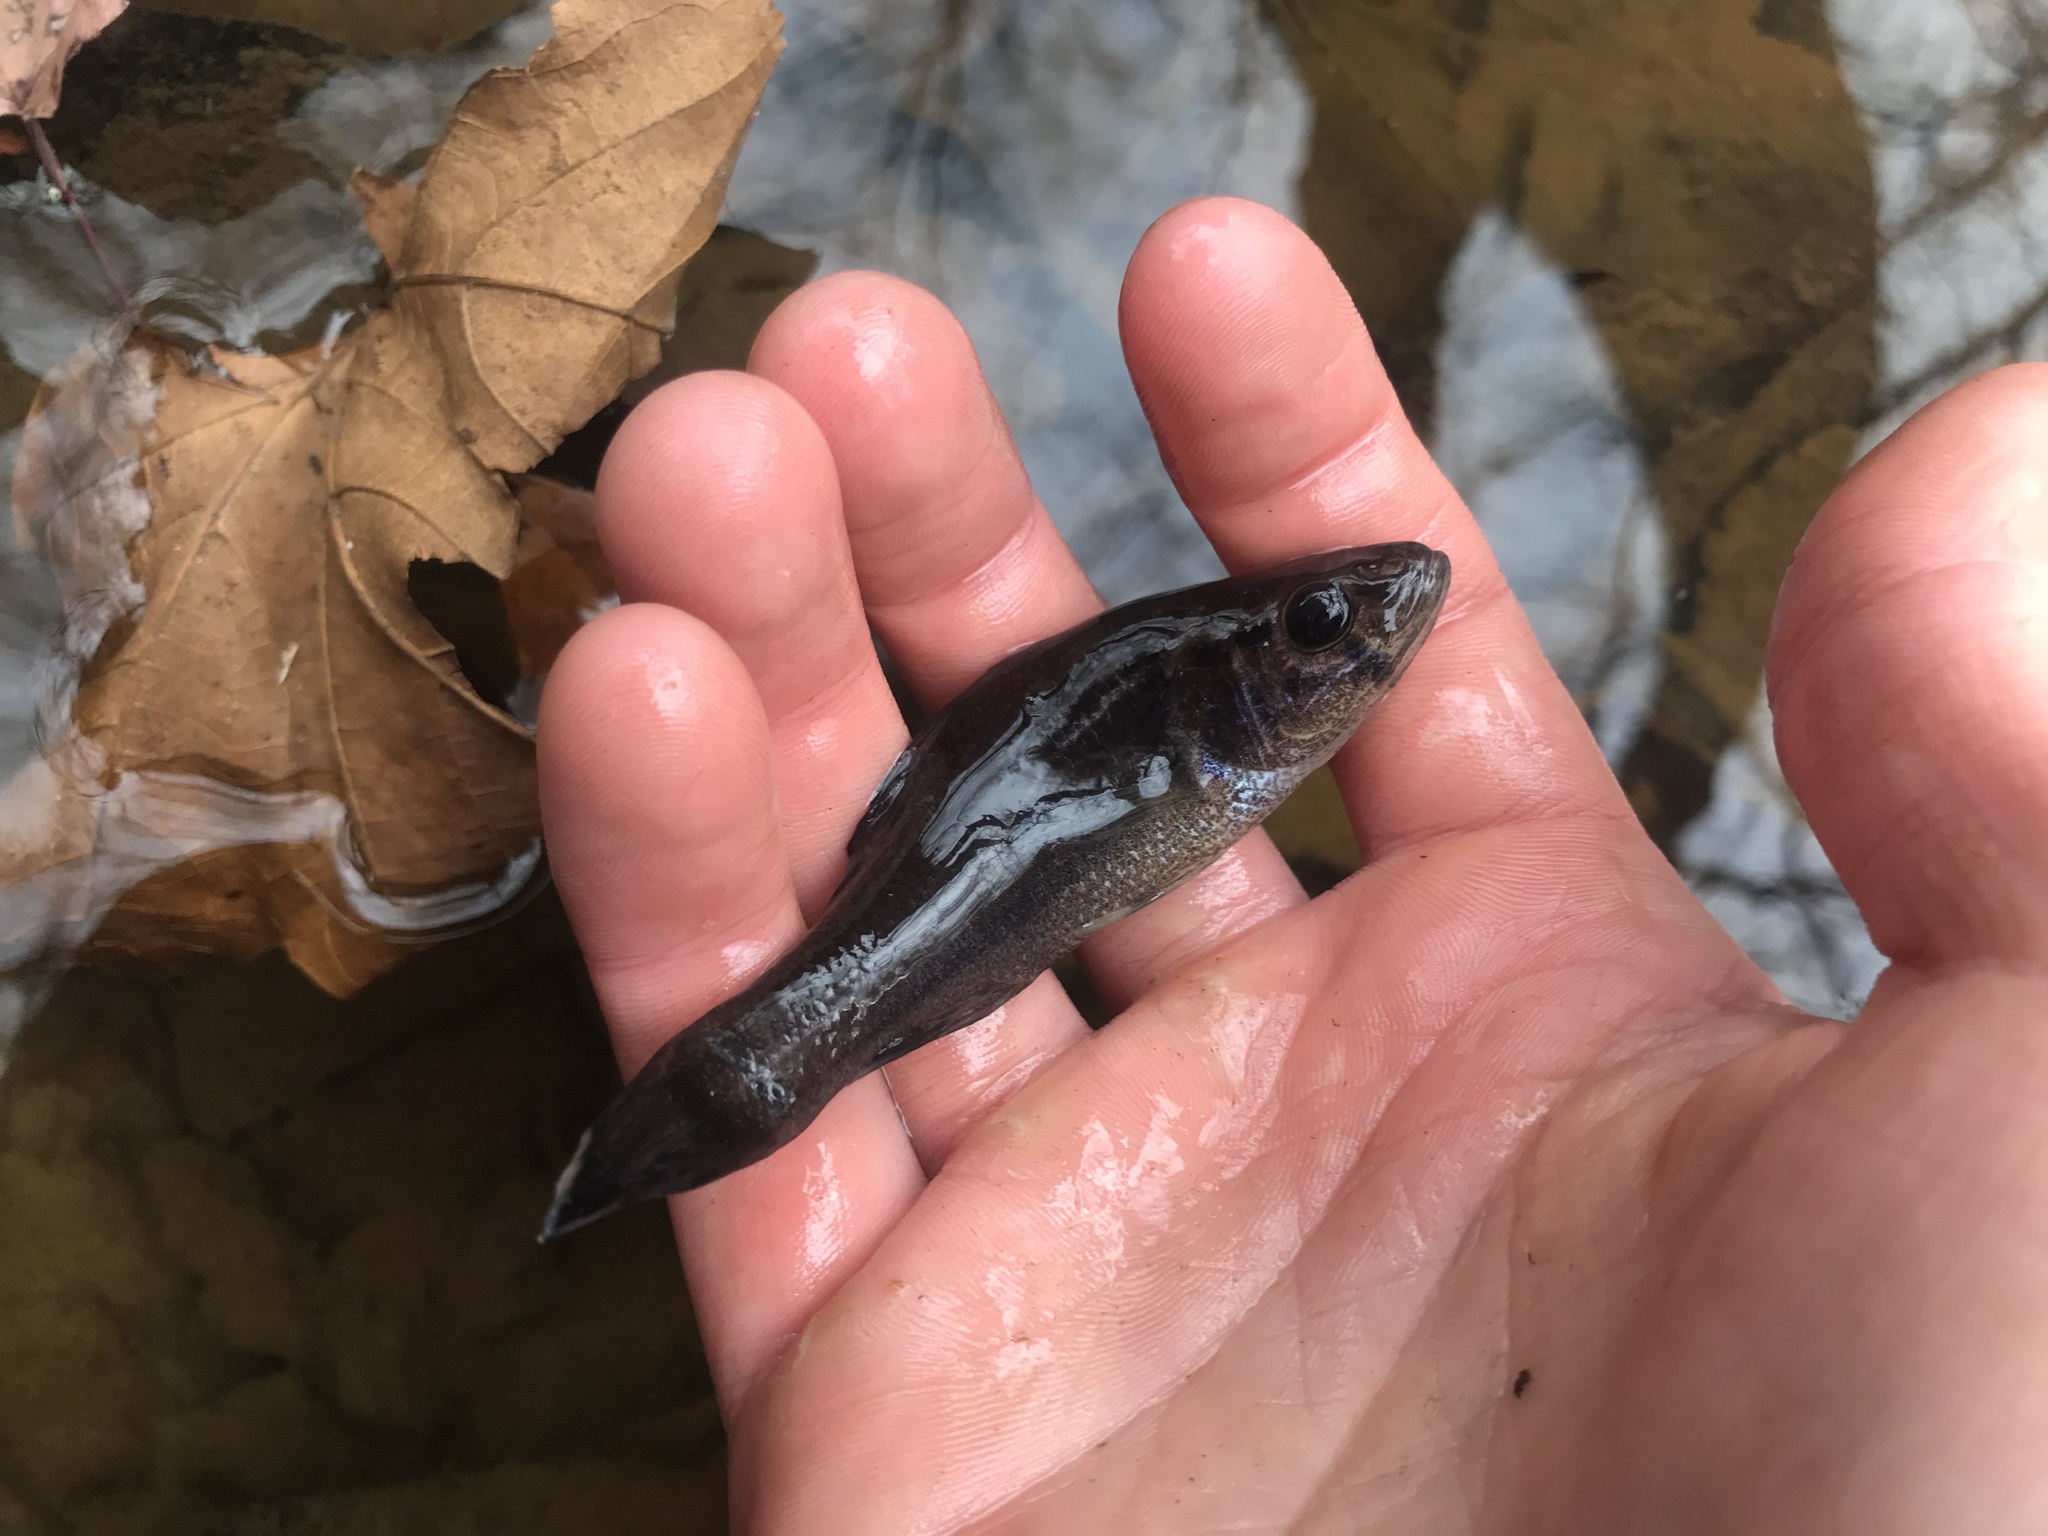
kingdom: Animalia
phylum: Chordata
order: Percopsiformes
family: Aphredoderidae
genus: Aphredoderus
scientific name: Aphredoderus
